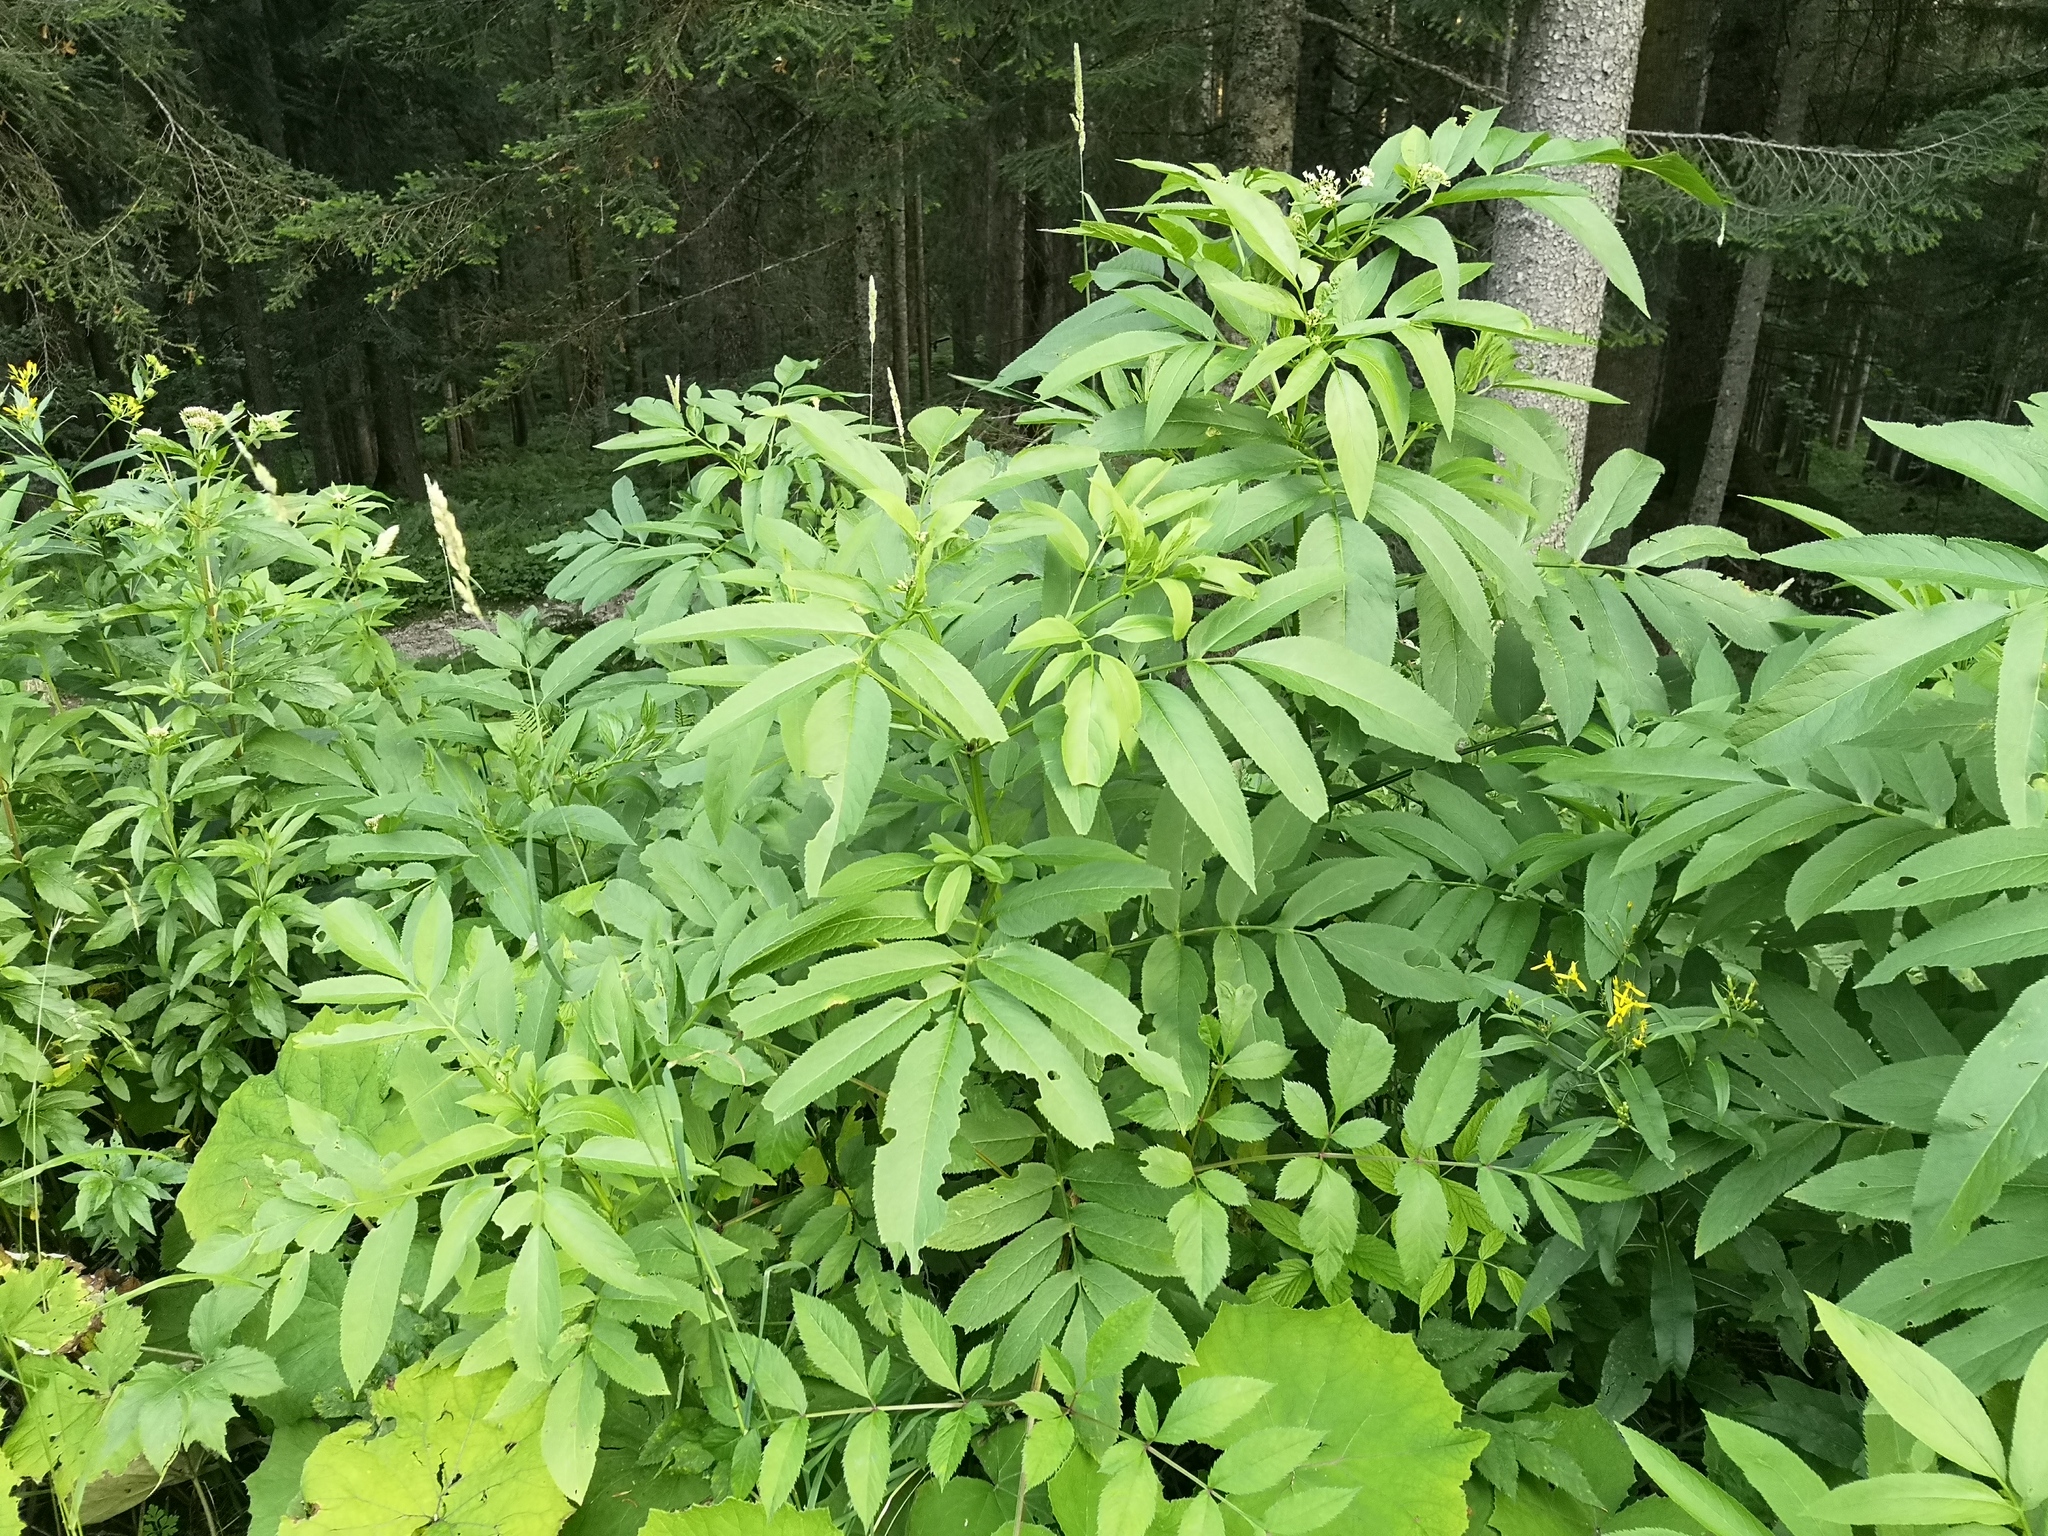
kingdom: Plantae
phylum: Tracheophyta
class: Magnoliopsida
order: Dipsacales
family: Viburnaceae
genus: Sambucus
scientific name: Sambucus ebulus
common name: Dwarf elder
